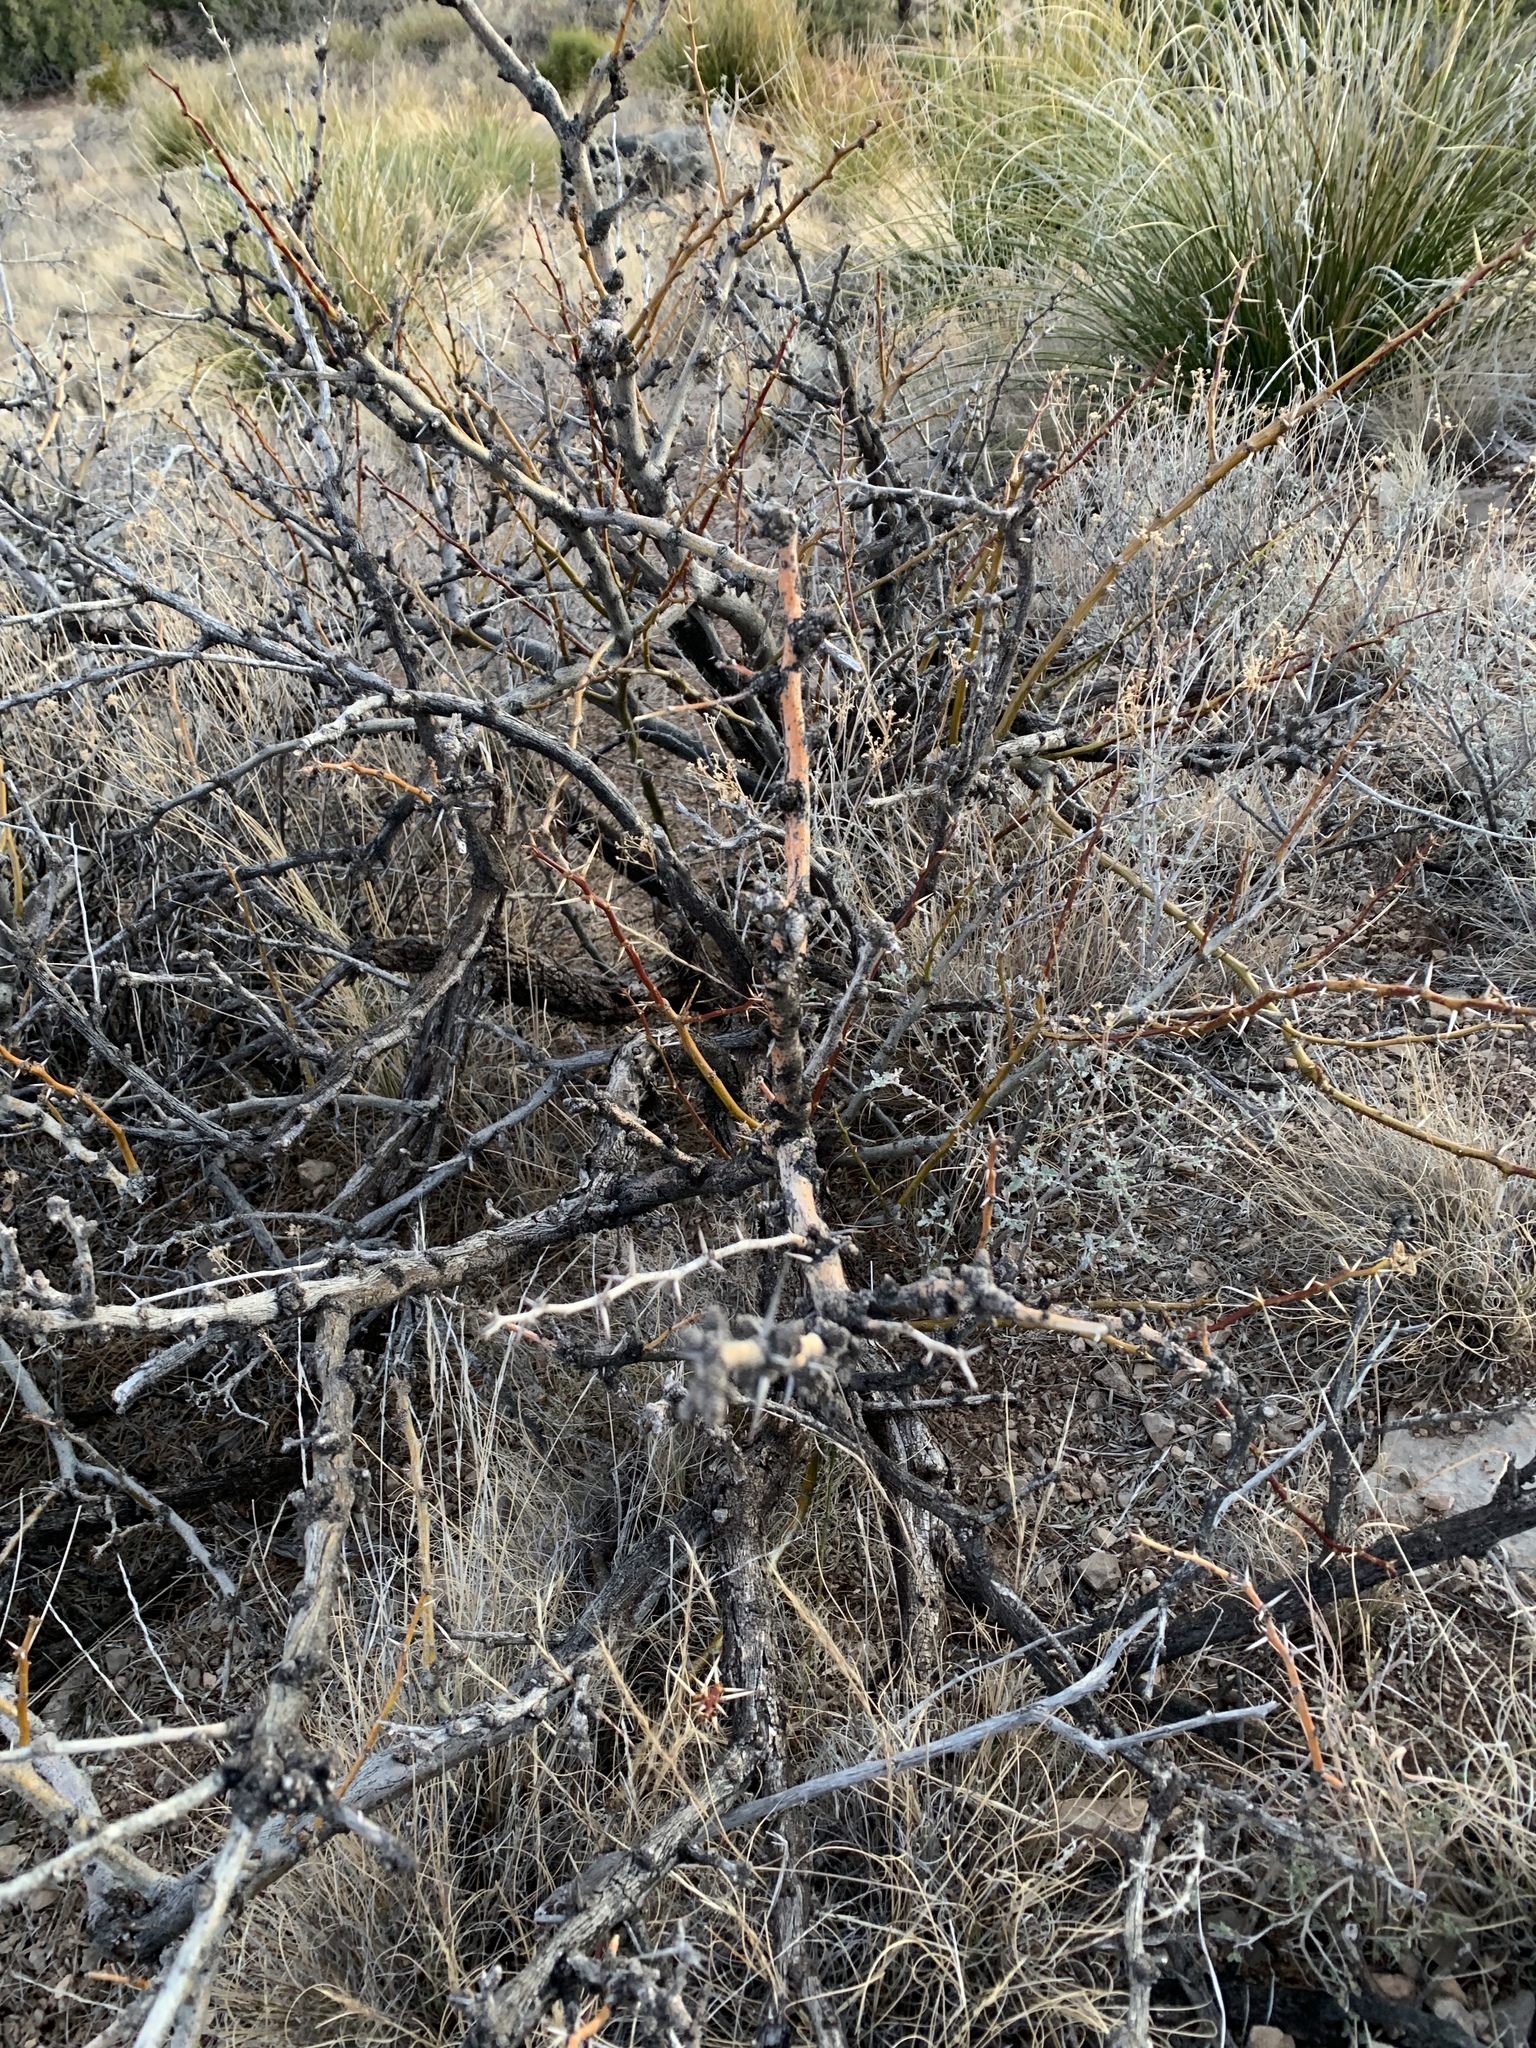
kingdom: Plantae
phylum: Tracheophyta
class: Magnoliopsida
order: Fabales
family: Fabaceae
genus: Prosopis
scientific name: Prosopis glandulosa
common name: Honey mesquite
